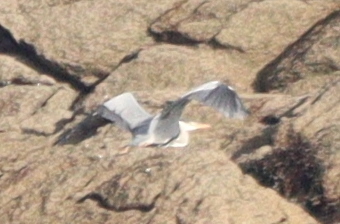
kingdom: Animalia
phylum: Chordata
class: Aves
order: Pelecaniformes
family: Ardeidae
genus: Ardea
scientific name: Ardea cinerea
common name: Grey heron
